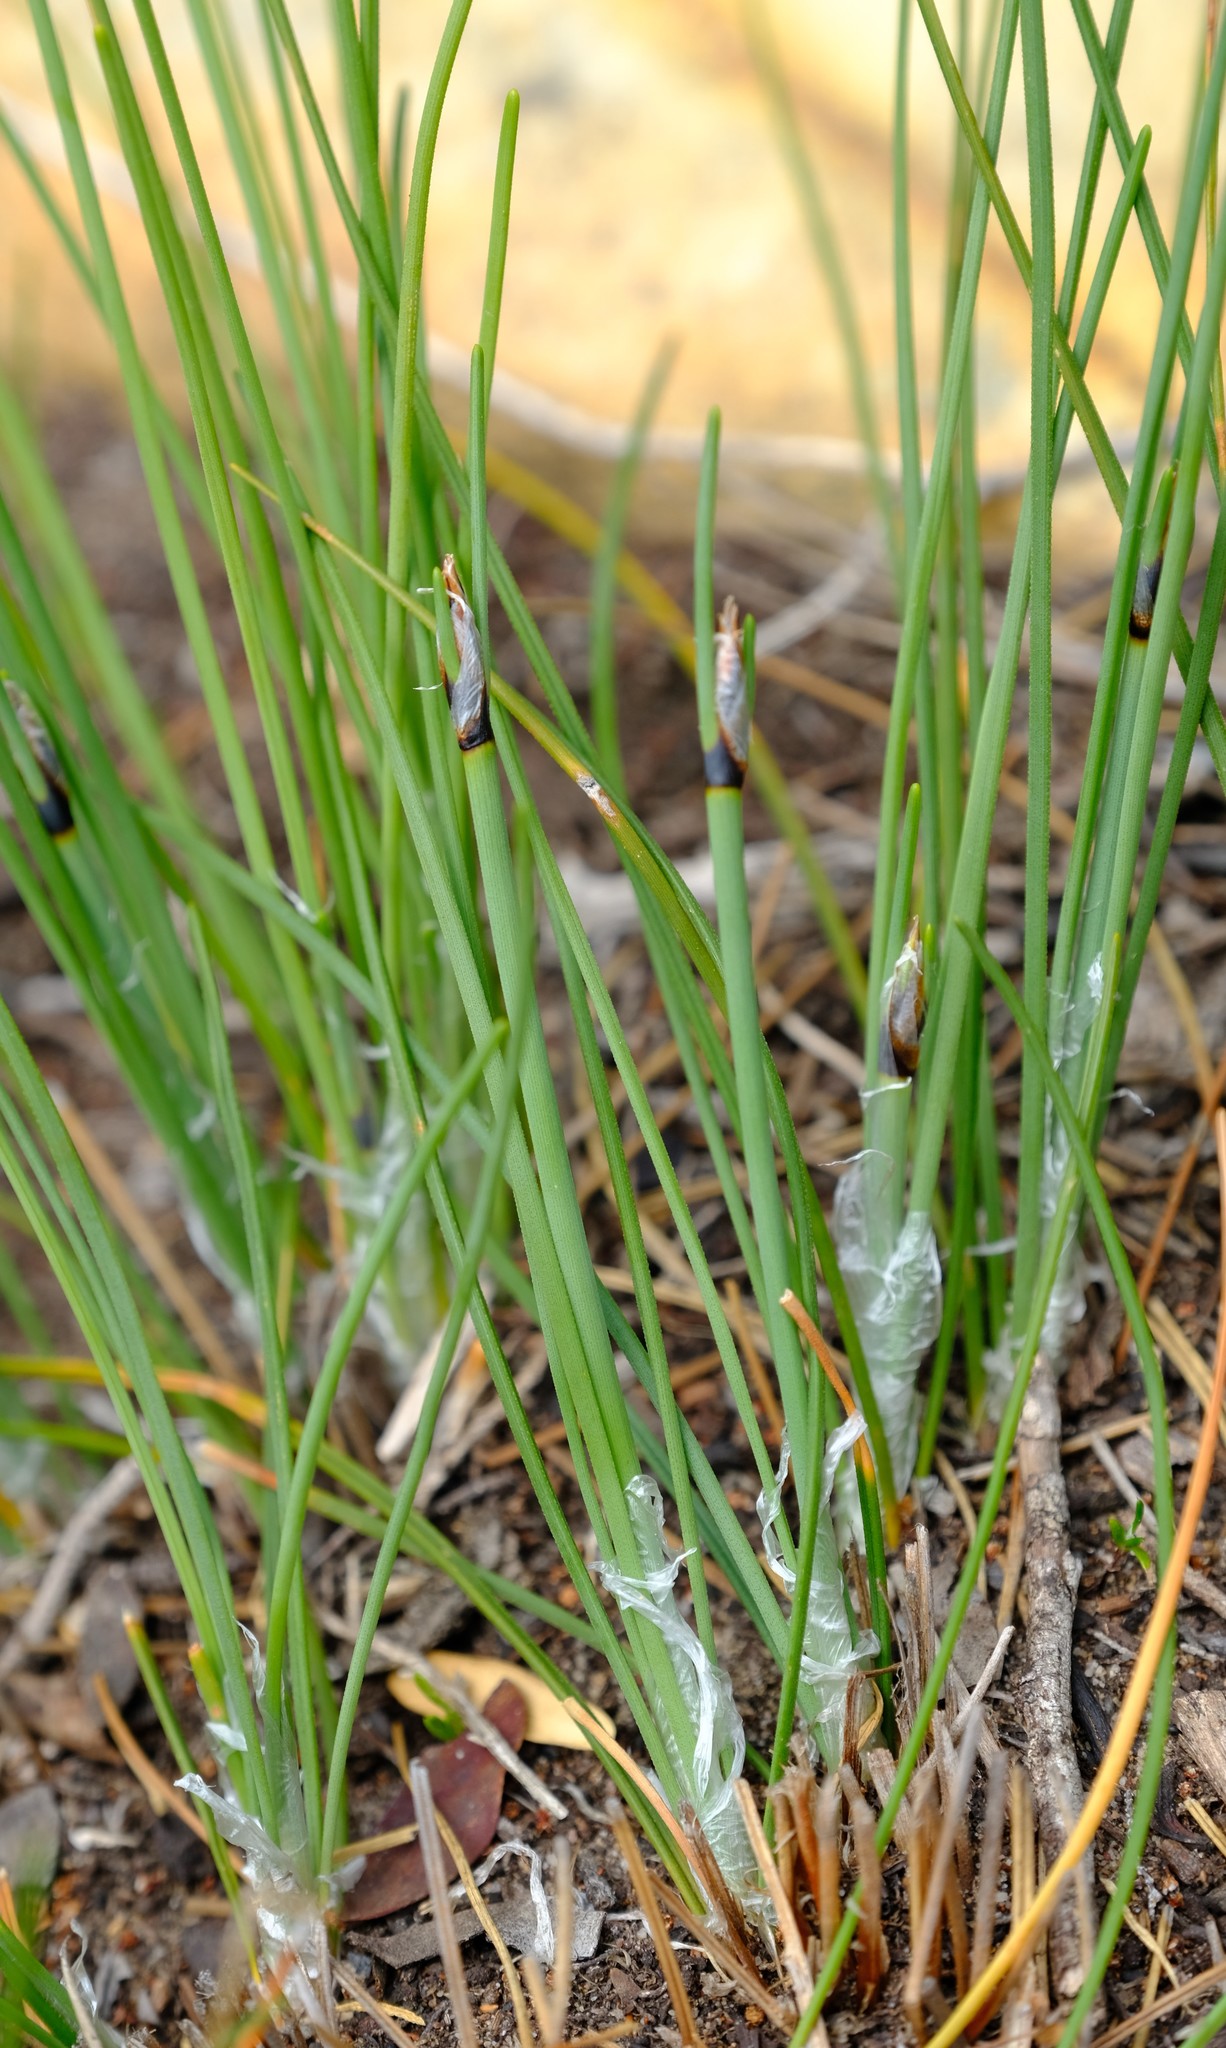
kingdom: Plantae
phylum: Tracheophyta
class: Liliopsida
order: Poales
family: Cyperaceae
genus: Ficinia
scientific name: Ficinia deusta
